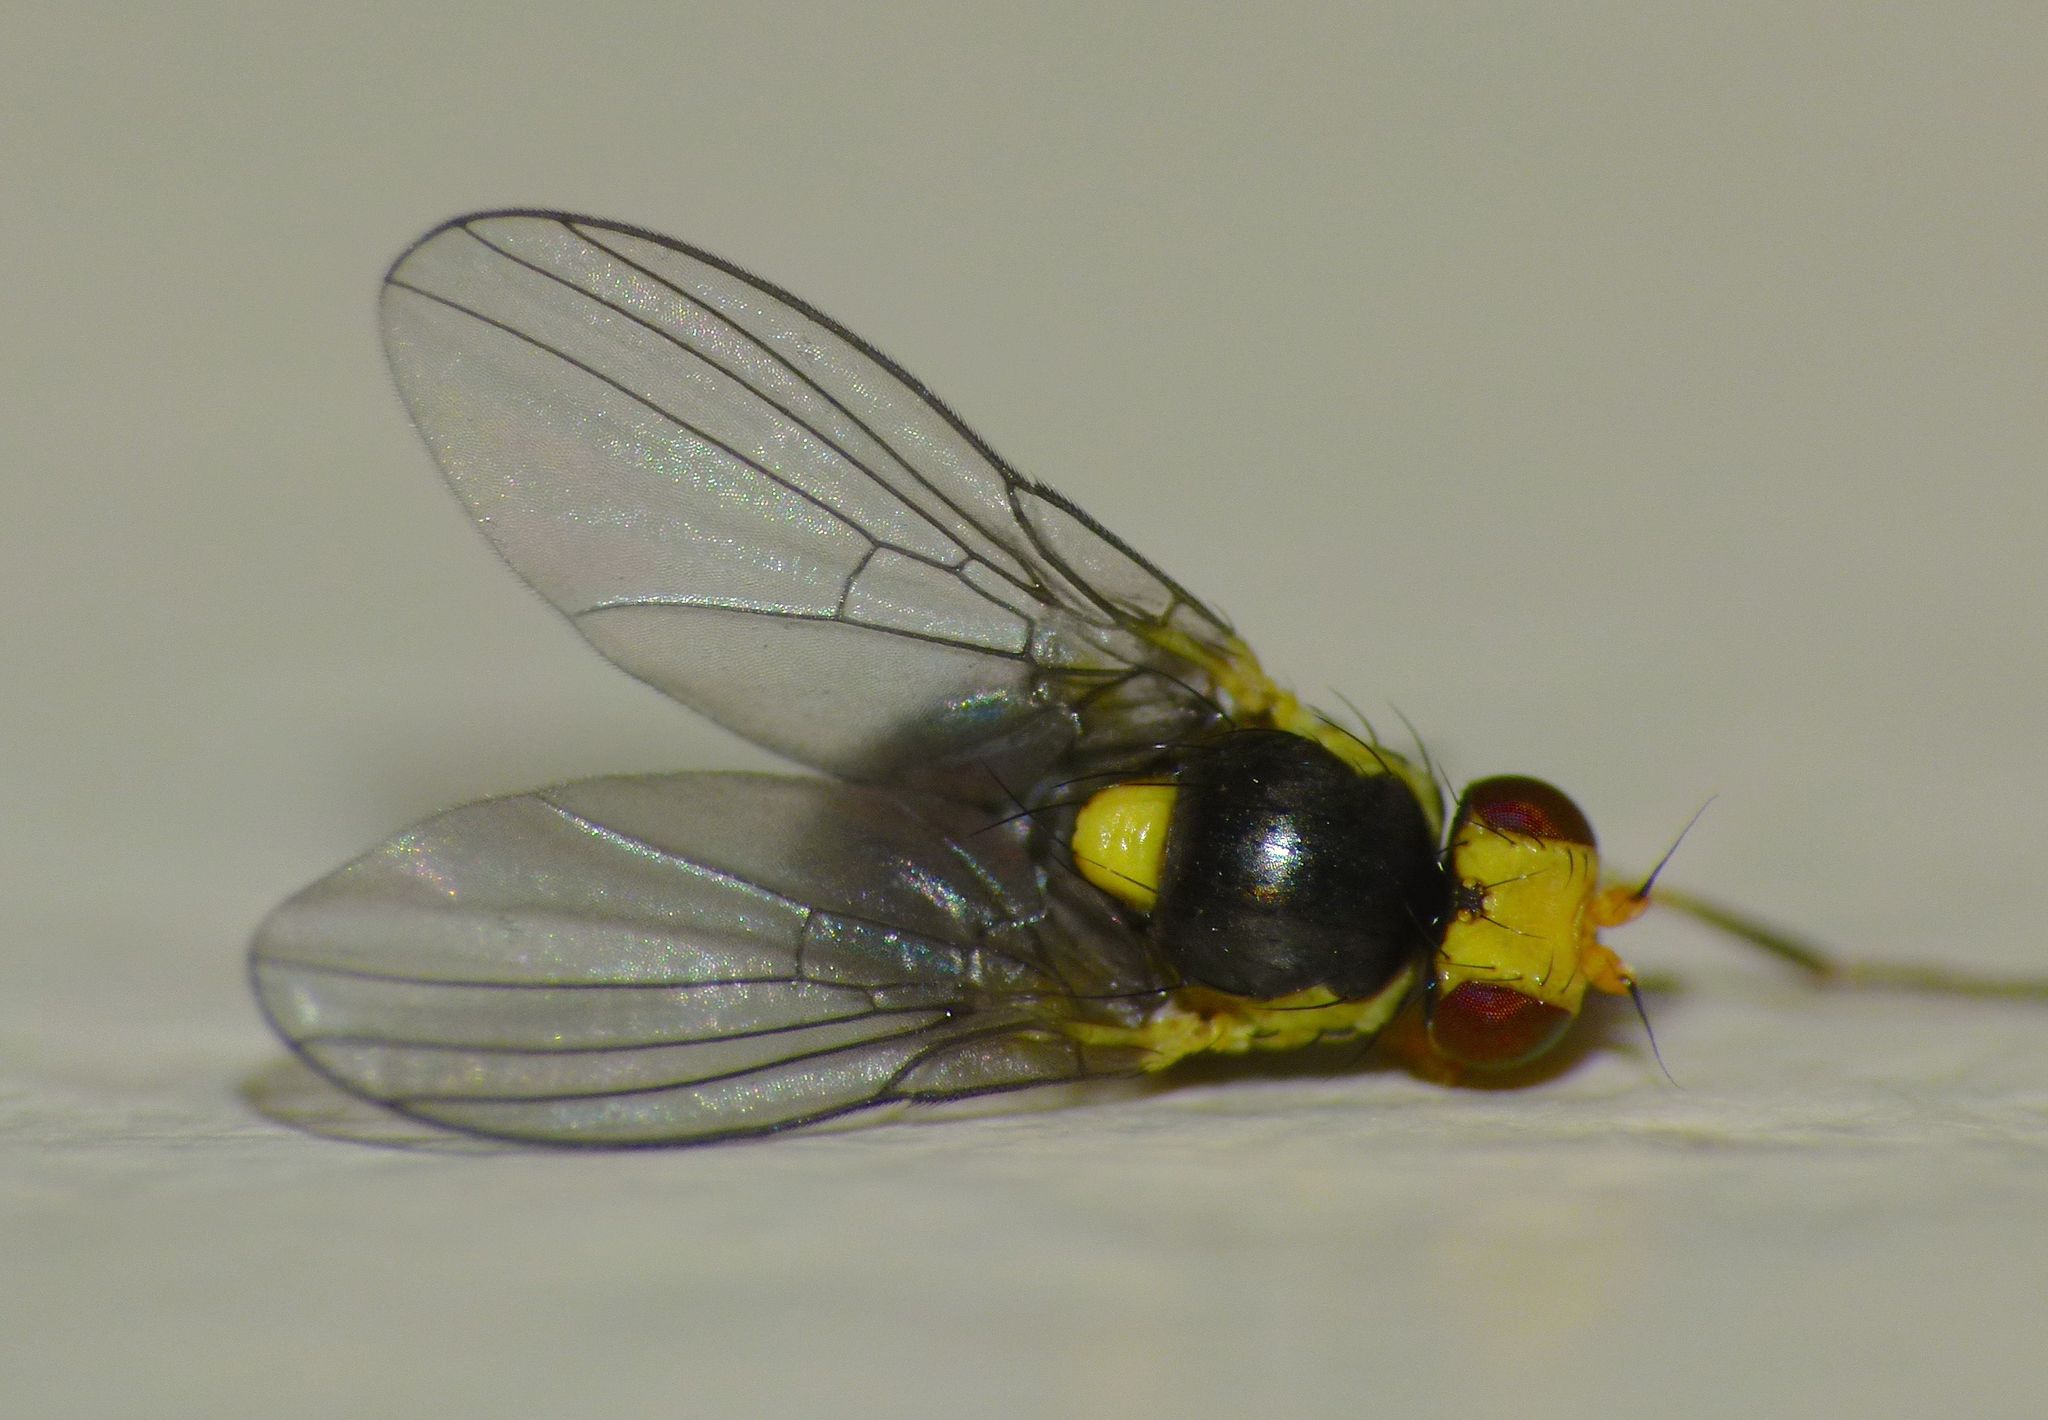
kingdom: Animalia
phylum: Arthropoda
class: Insecta
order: Diptera
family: Agromyzidae
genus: Liriomyza
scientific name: Liriomyza citreifemorata
